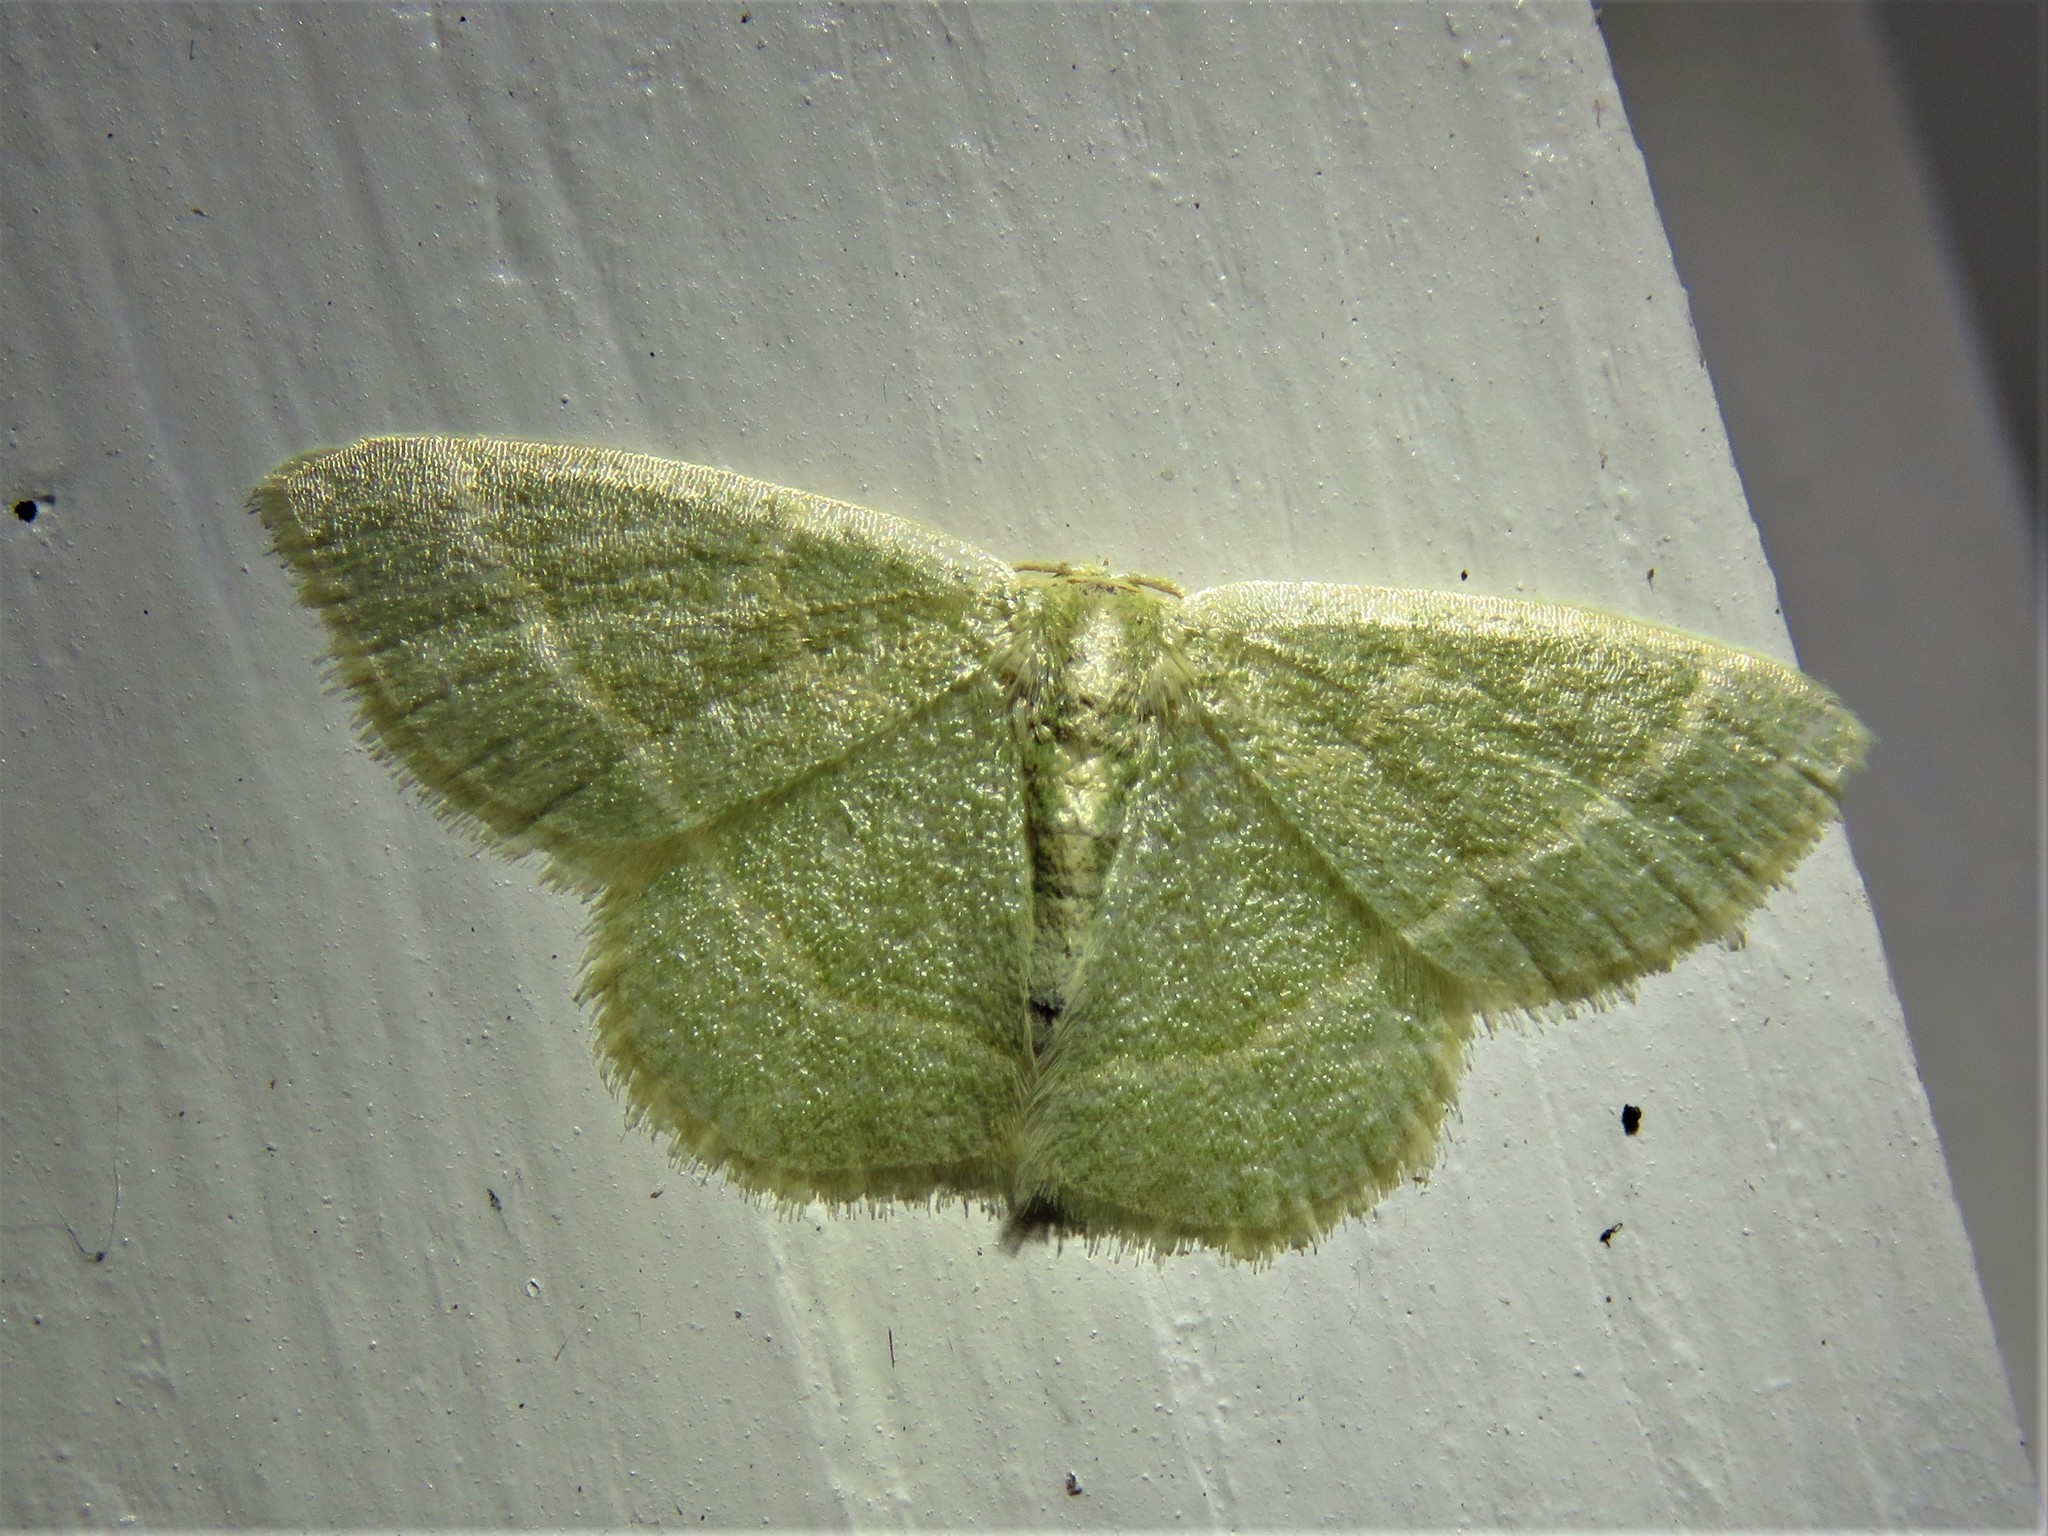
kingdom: Animalia
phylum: Arthropoda
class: Insecta
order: Lepidoptera
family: Geometridae
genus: Chlorochlamys
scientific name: Chlorochlamys chloroleucaria
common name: Blackberry looper
